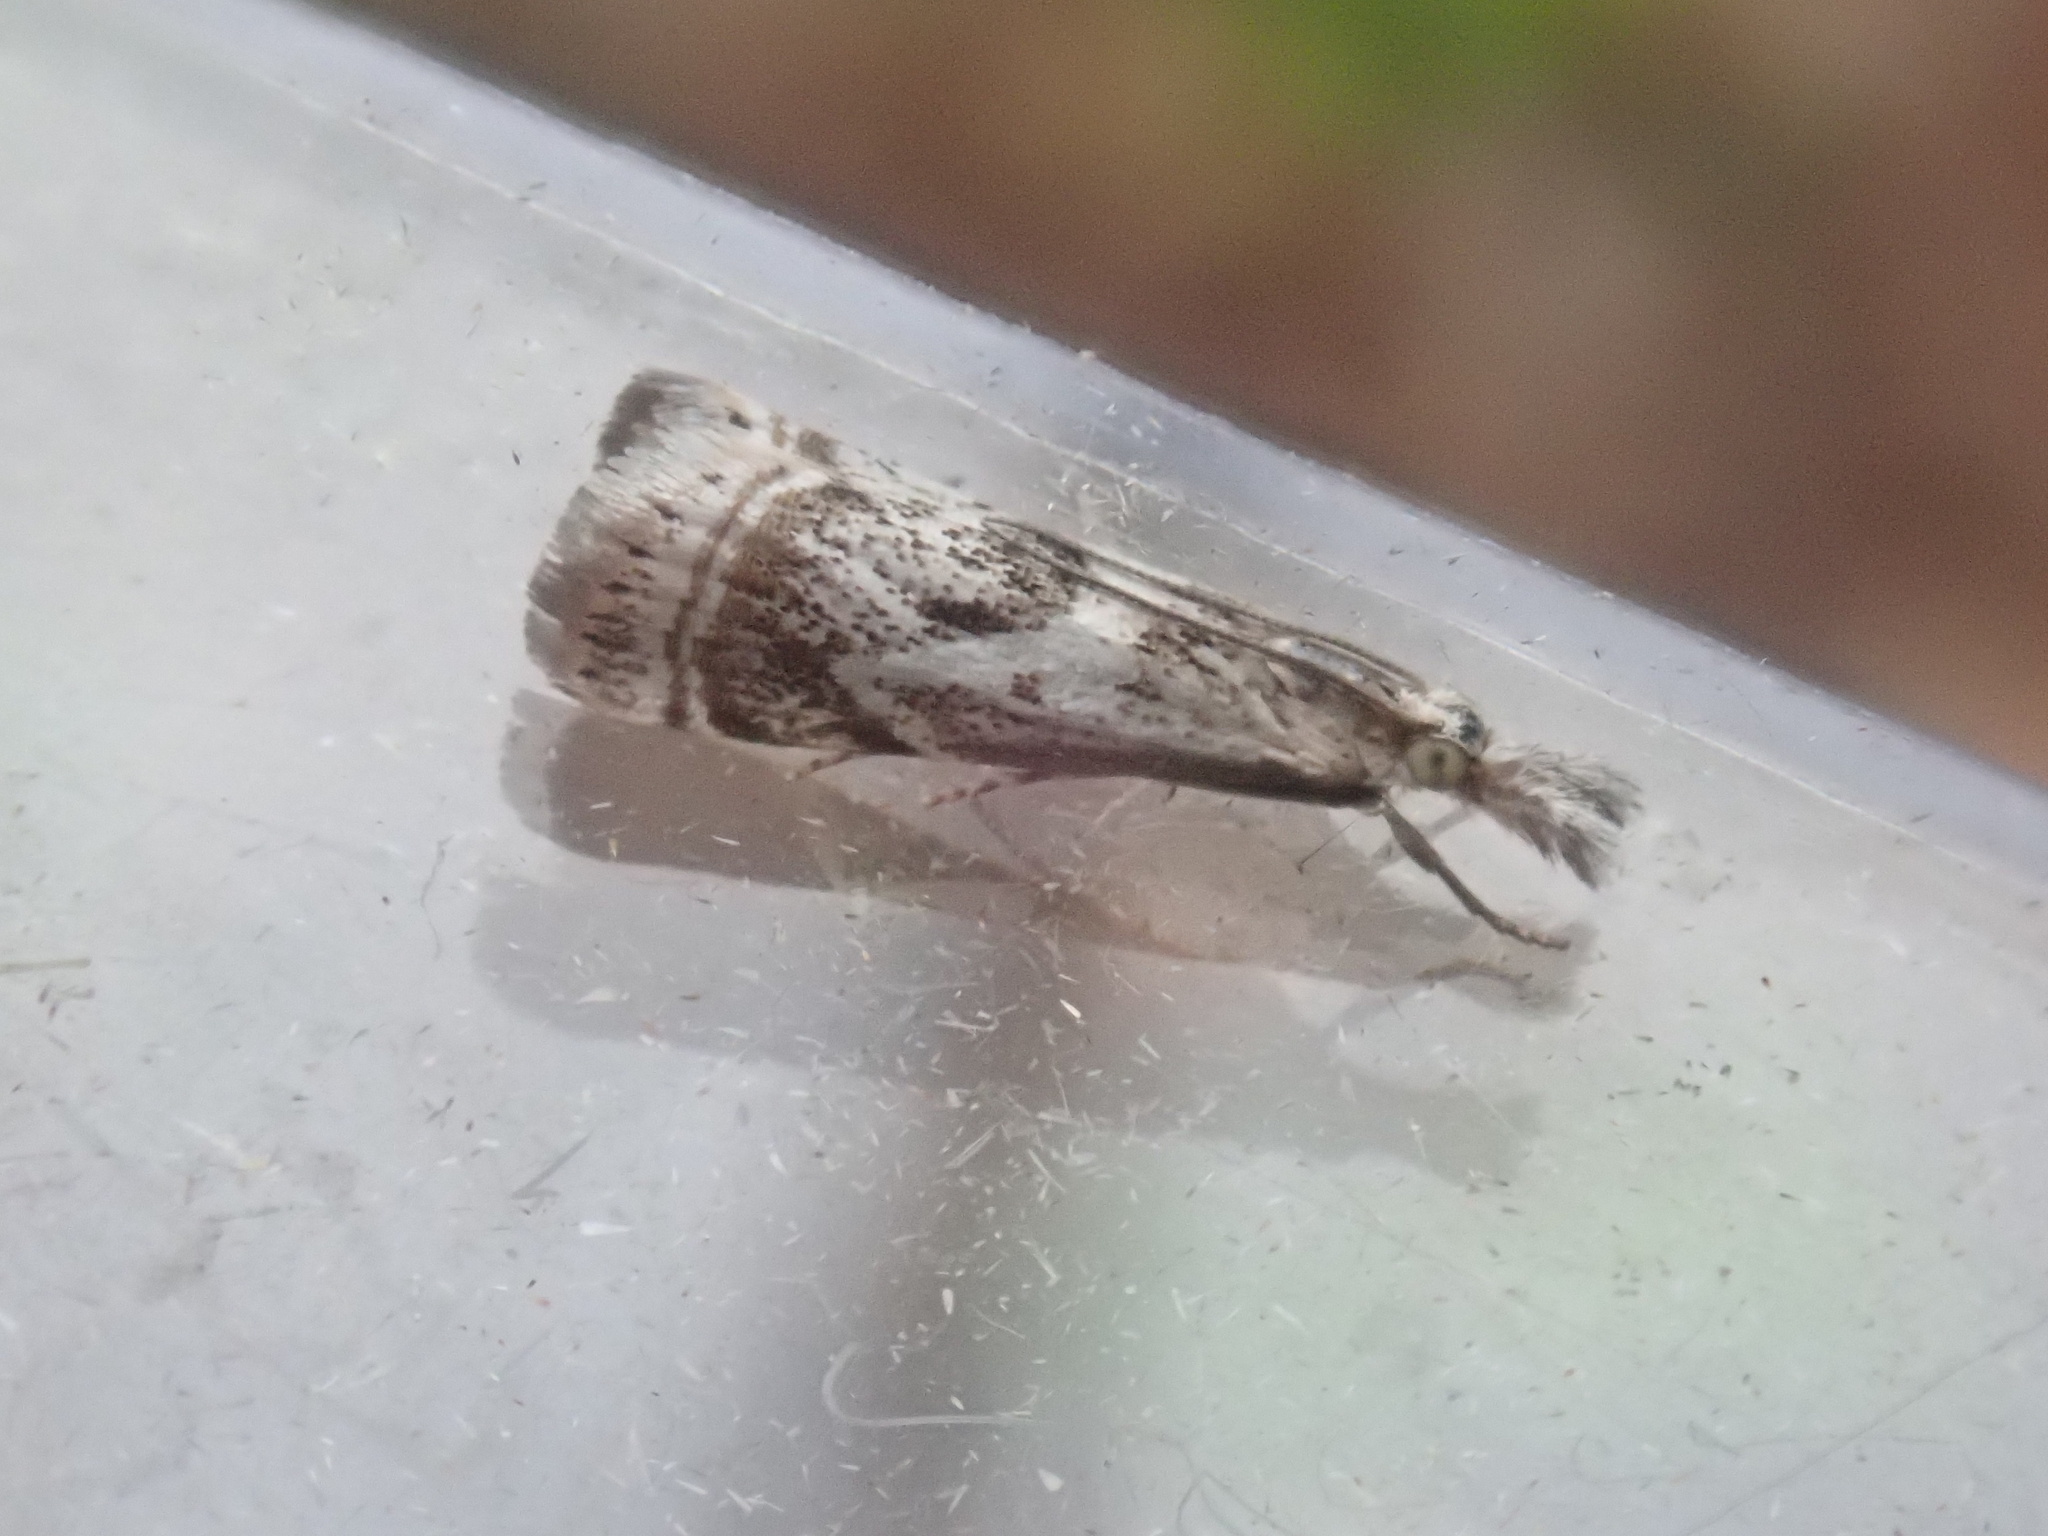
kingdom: Animalia
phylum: Arthropoda
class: Insecta
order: Lepidoptera
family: Crambidae
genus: Microcrambus
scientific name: Microcrambus elegans
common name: Elegant grass-veneer
